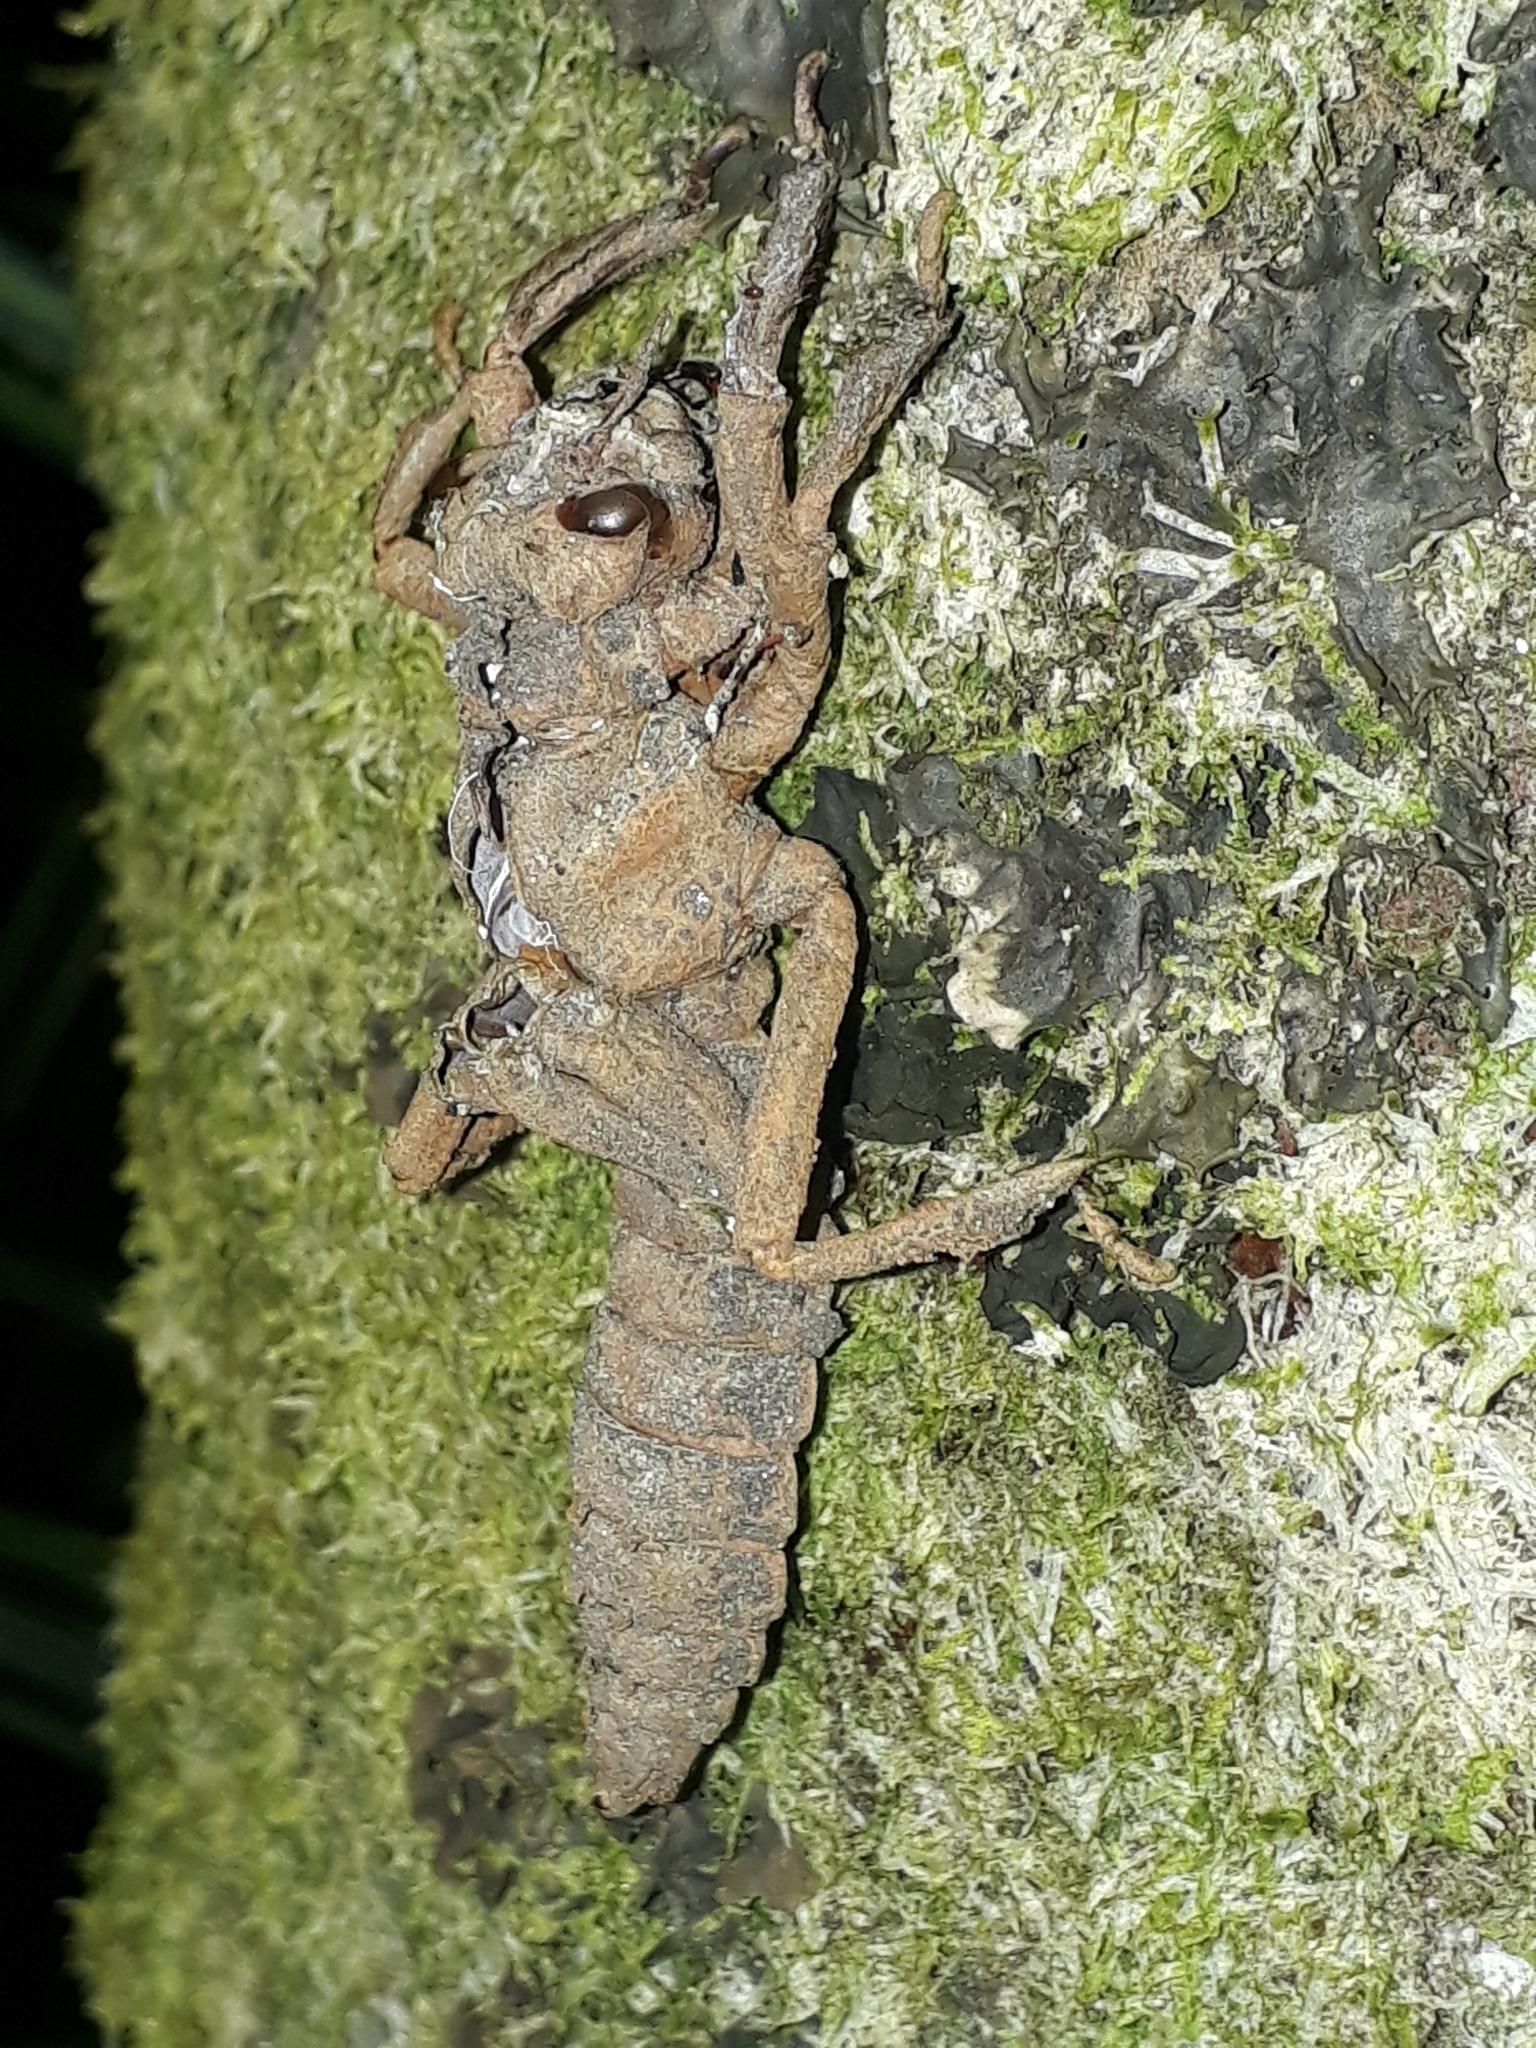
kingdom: Animalia
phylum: Arthropoda
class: Insecta
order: Odonata
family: Petaluridae
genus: Uropetala
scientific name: Uropetala carovei
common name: Bush giant dragonfly
